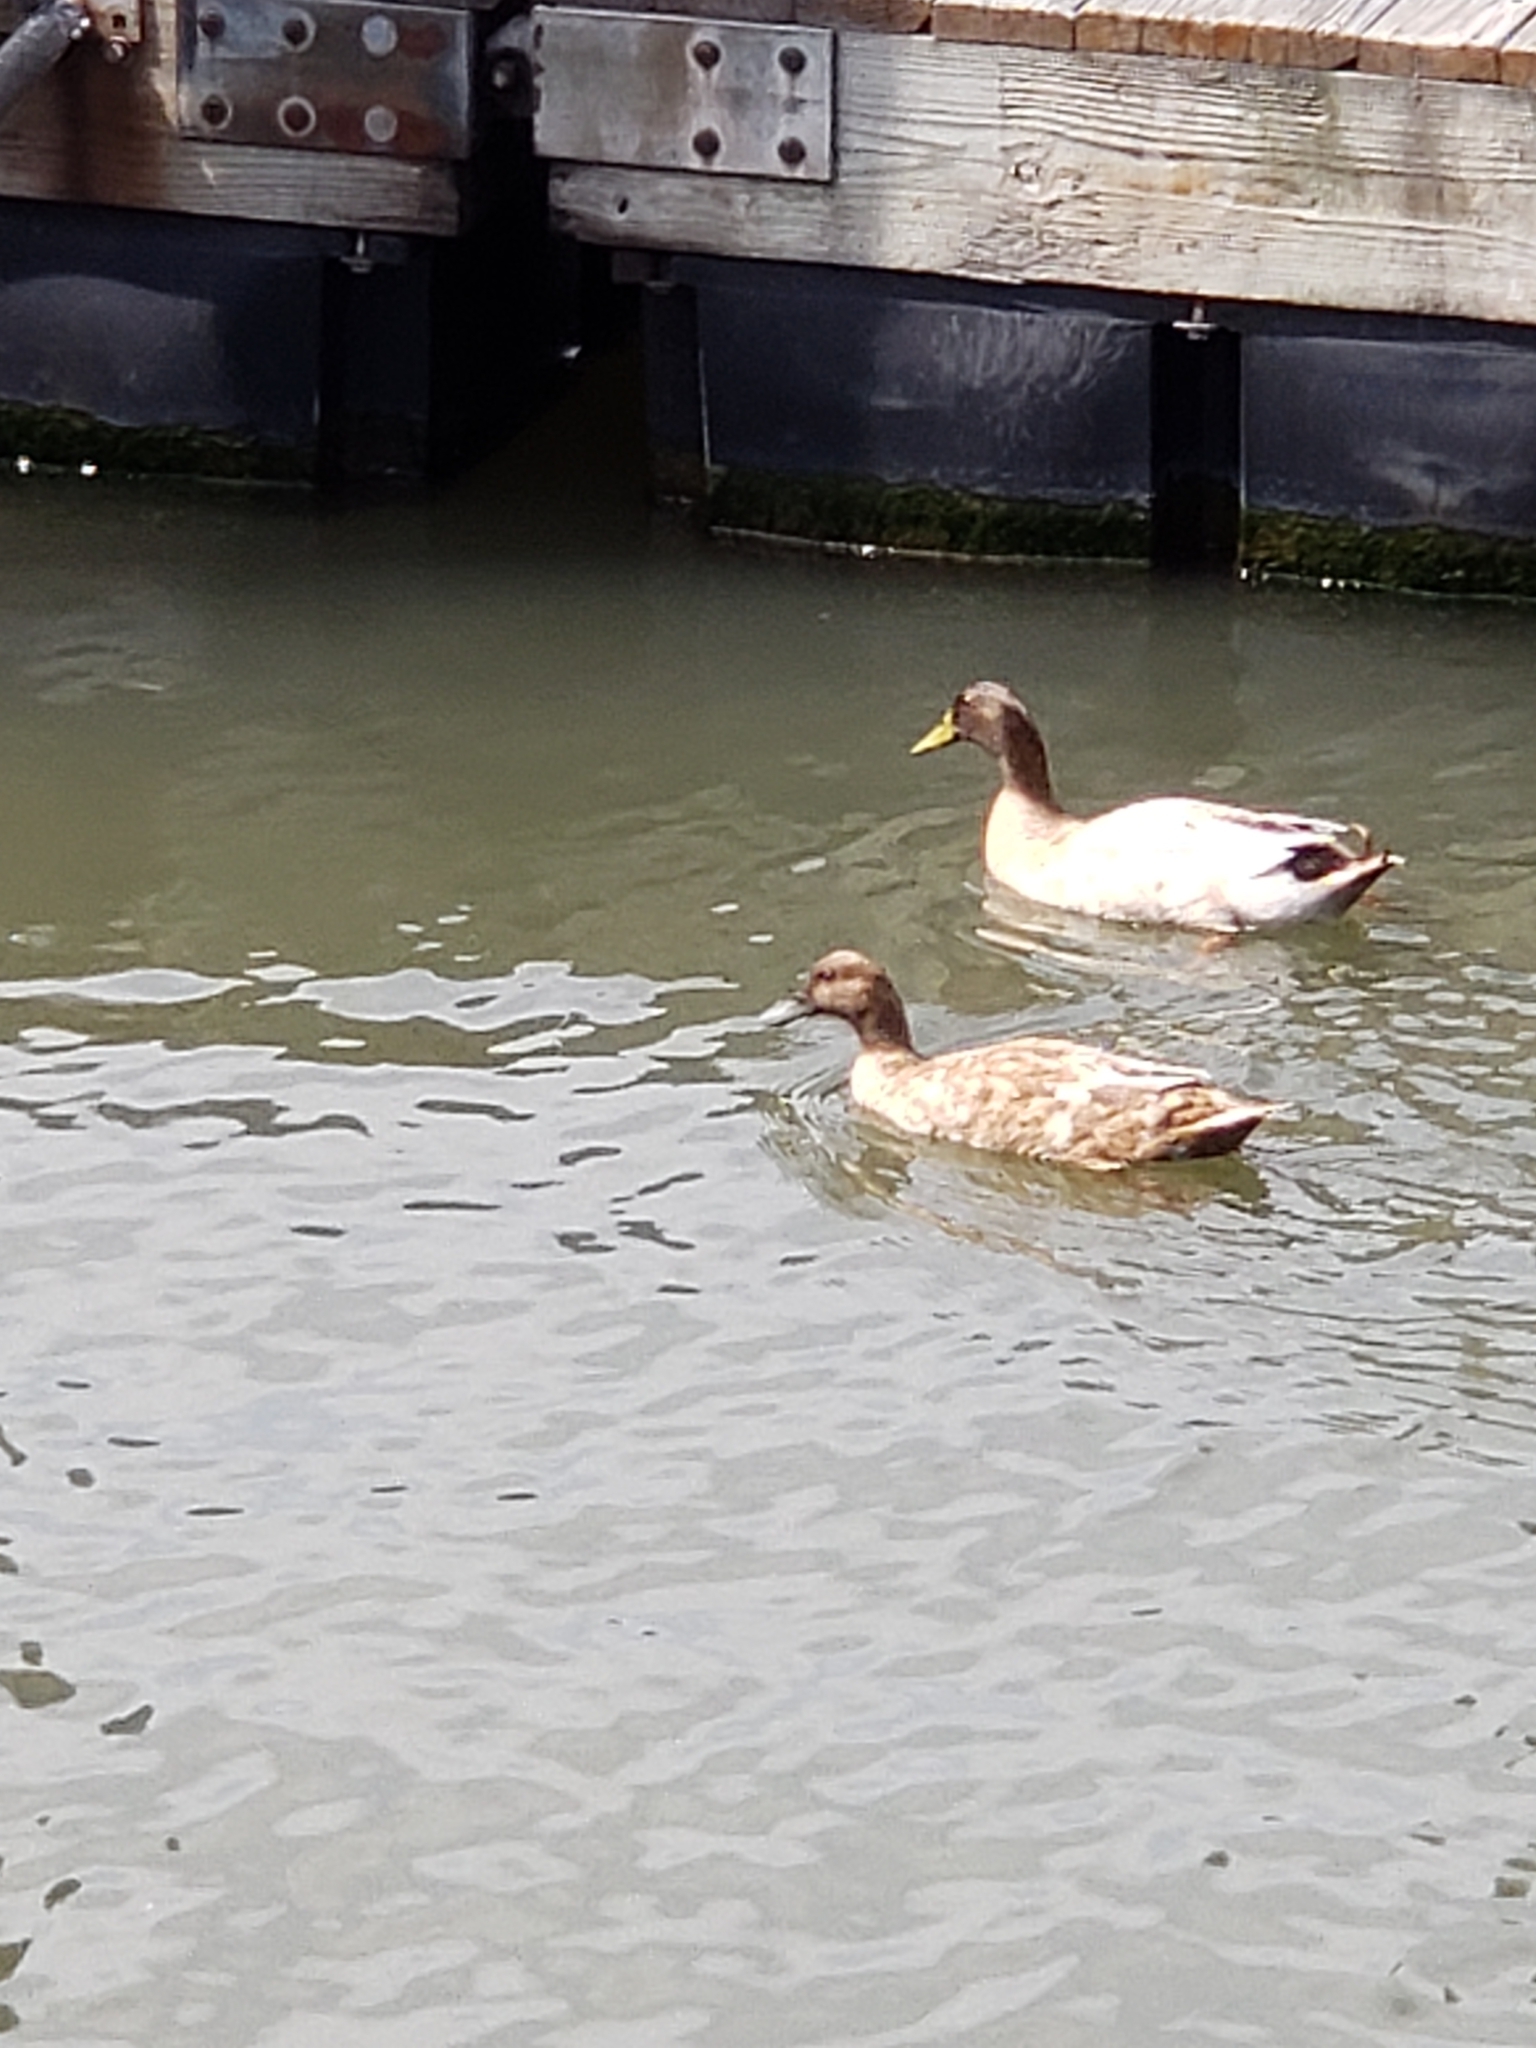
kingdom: Animalia
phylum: Chordata
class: Aves
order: Anseriformes
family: Anatidae
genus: Anas
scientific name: Anas platyrhynchos
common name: Mallard
